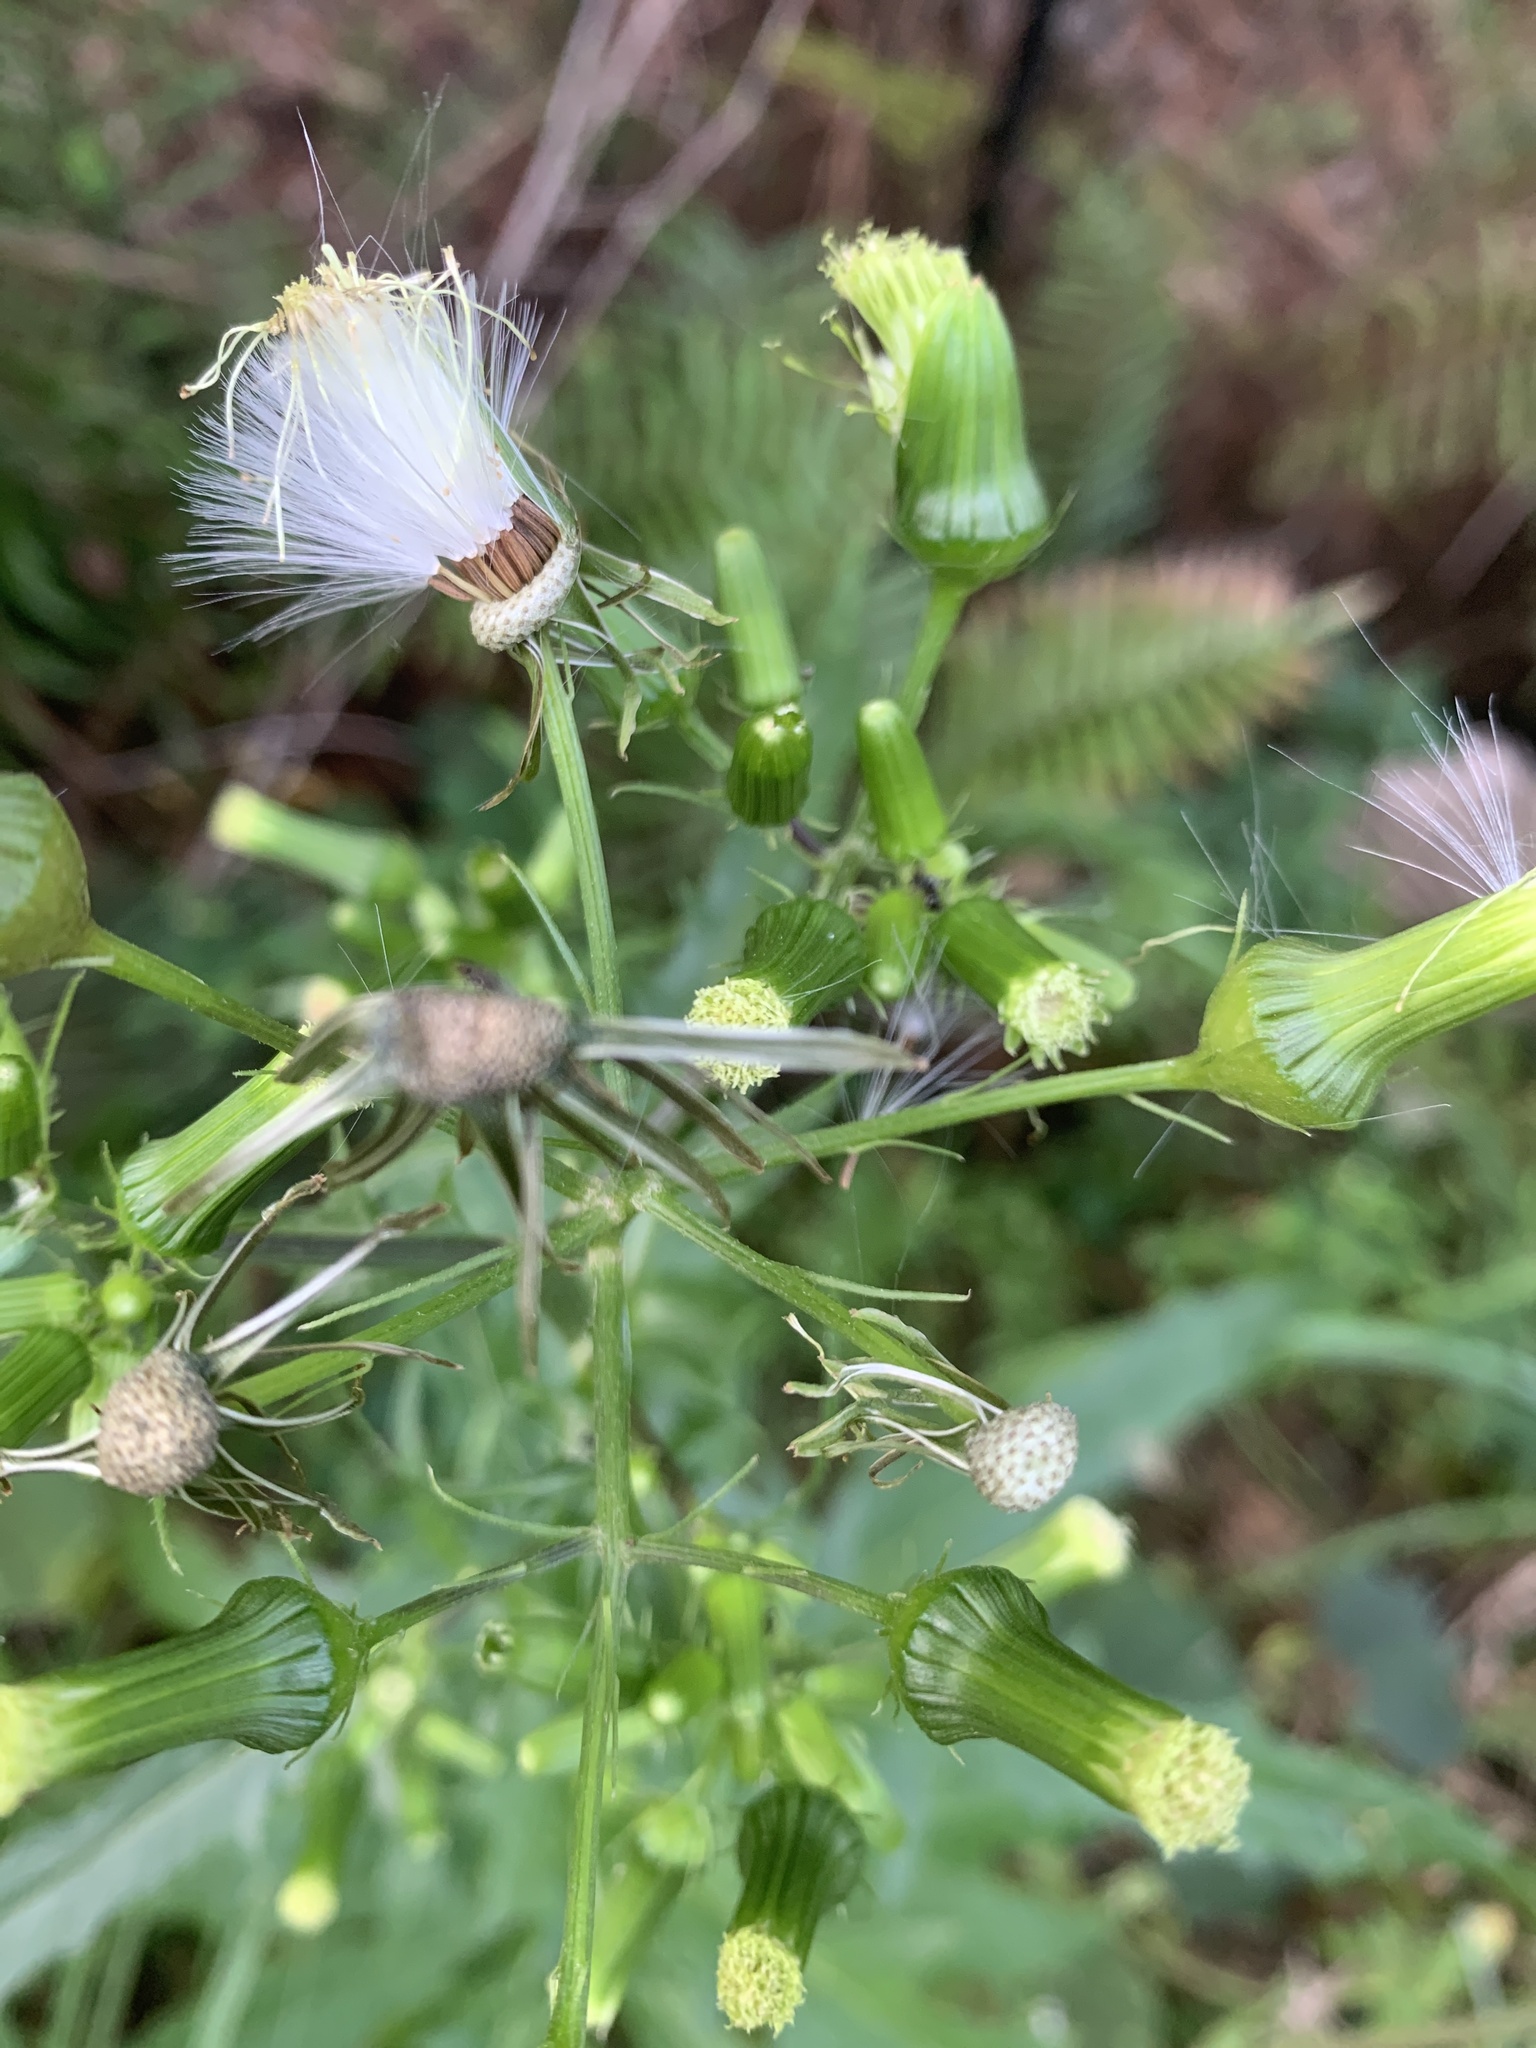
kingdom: Plantae
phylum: Tracheophyta
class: Magnoliopsida
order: Asterales
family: Asteraceae
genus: Erechtites
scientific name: Erechtites hieraciifolius
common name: American burnweed
